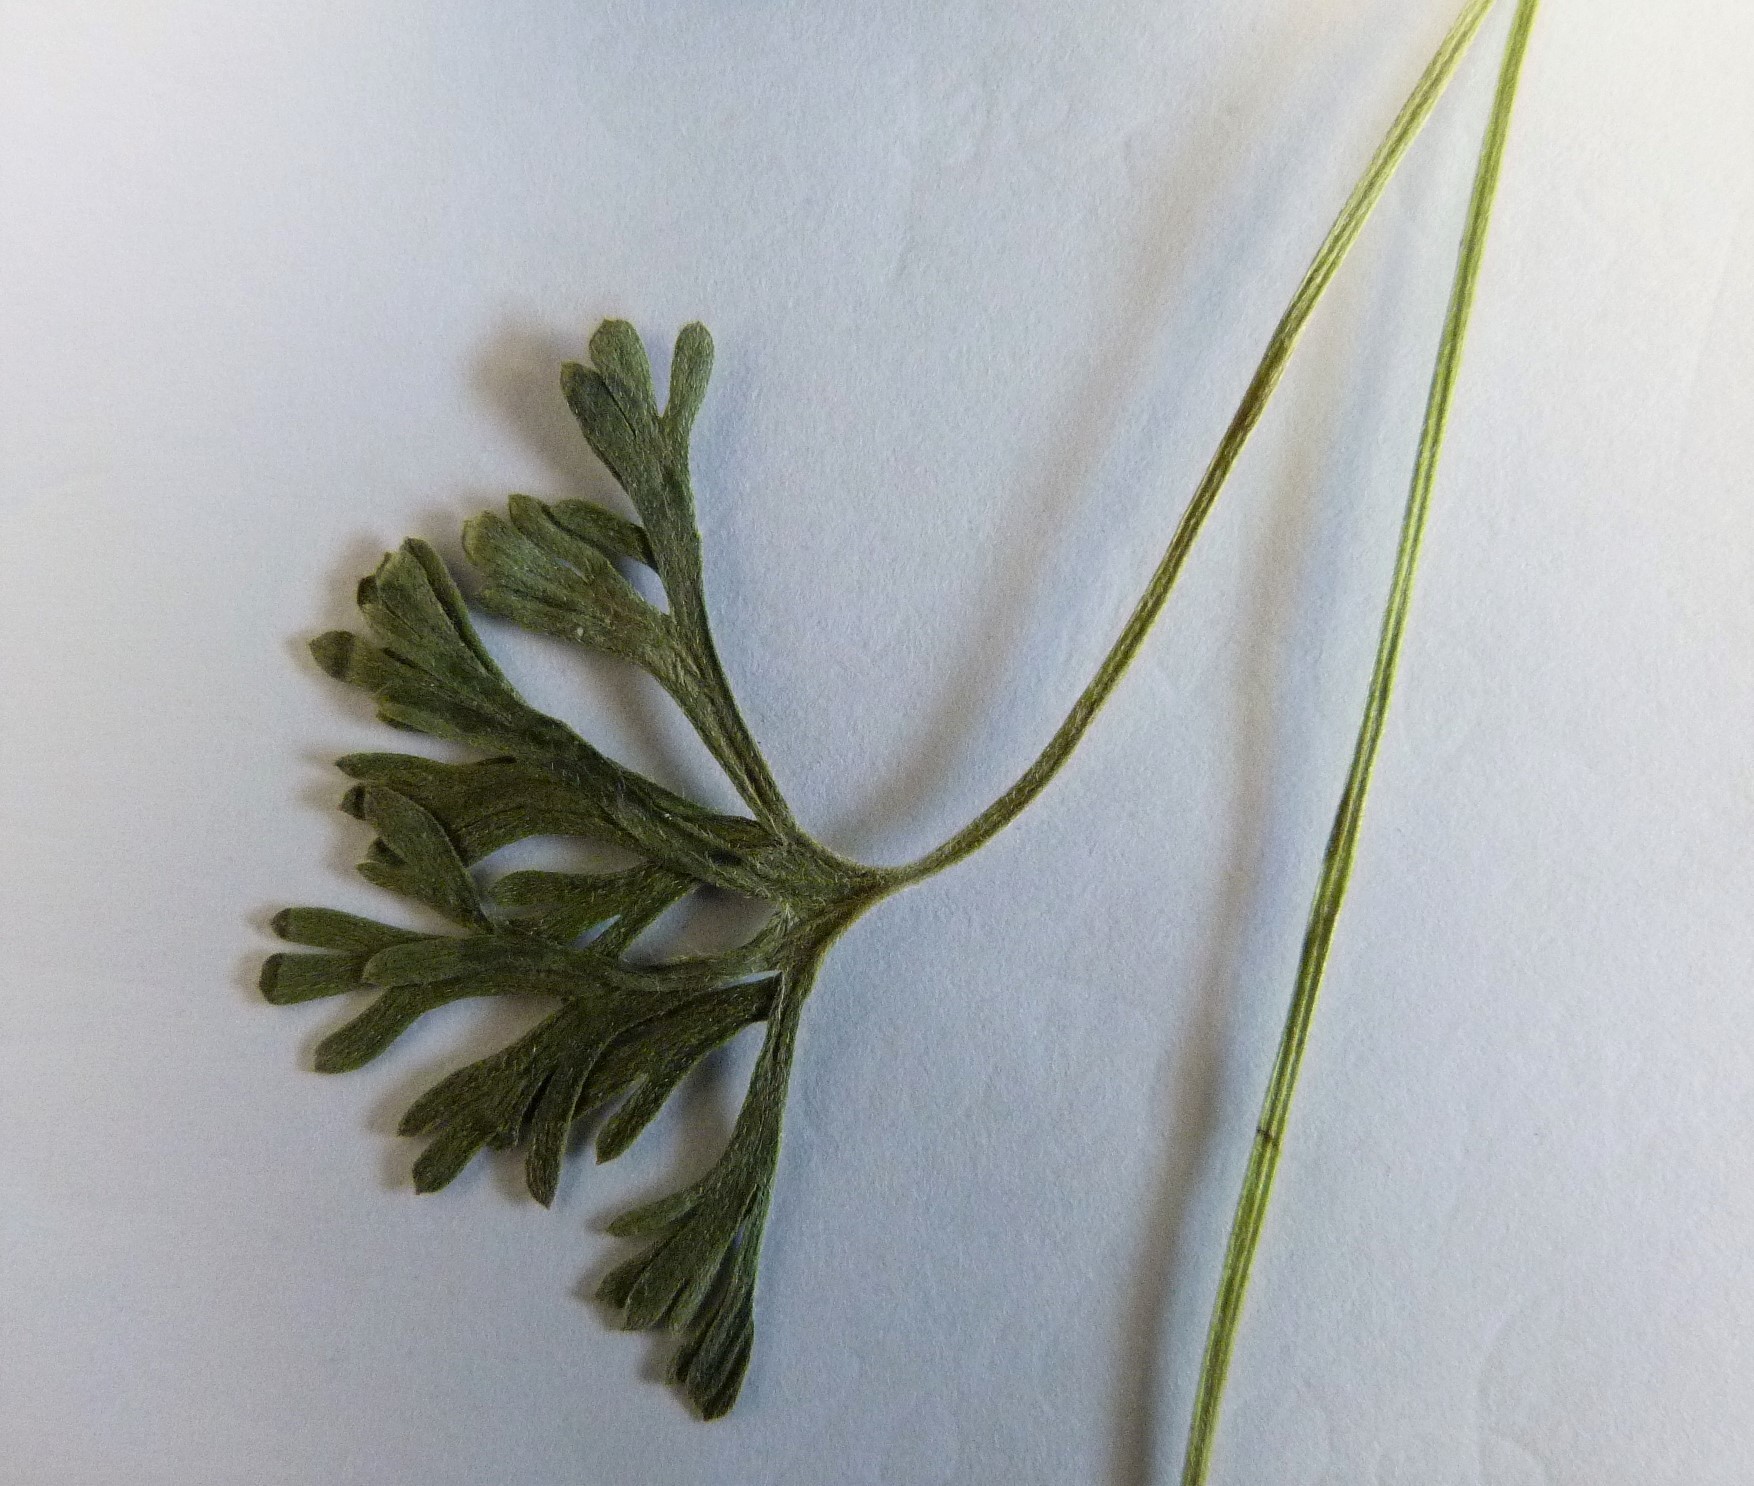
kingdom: Plantae
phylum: Tracheophyta
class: Magnoliopsida
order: Geraniales
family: Geraniaceae
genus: Geranium
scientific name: Geranium retrorsum
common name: New zealand geranium
